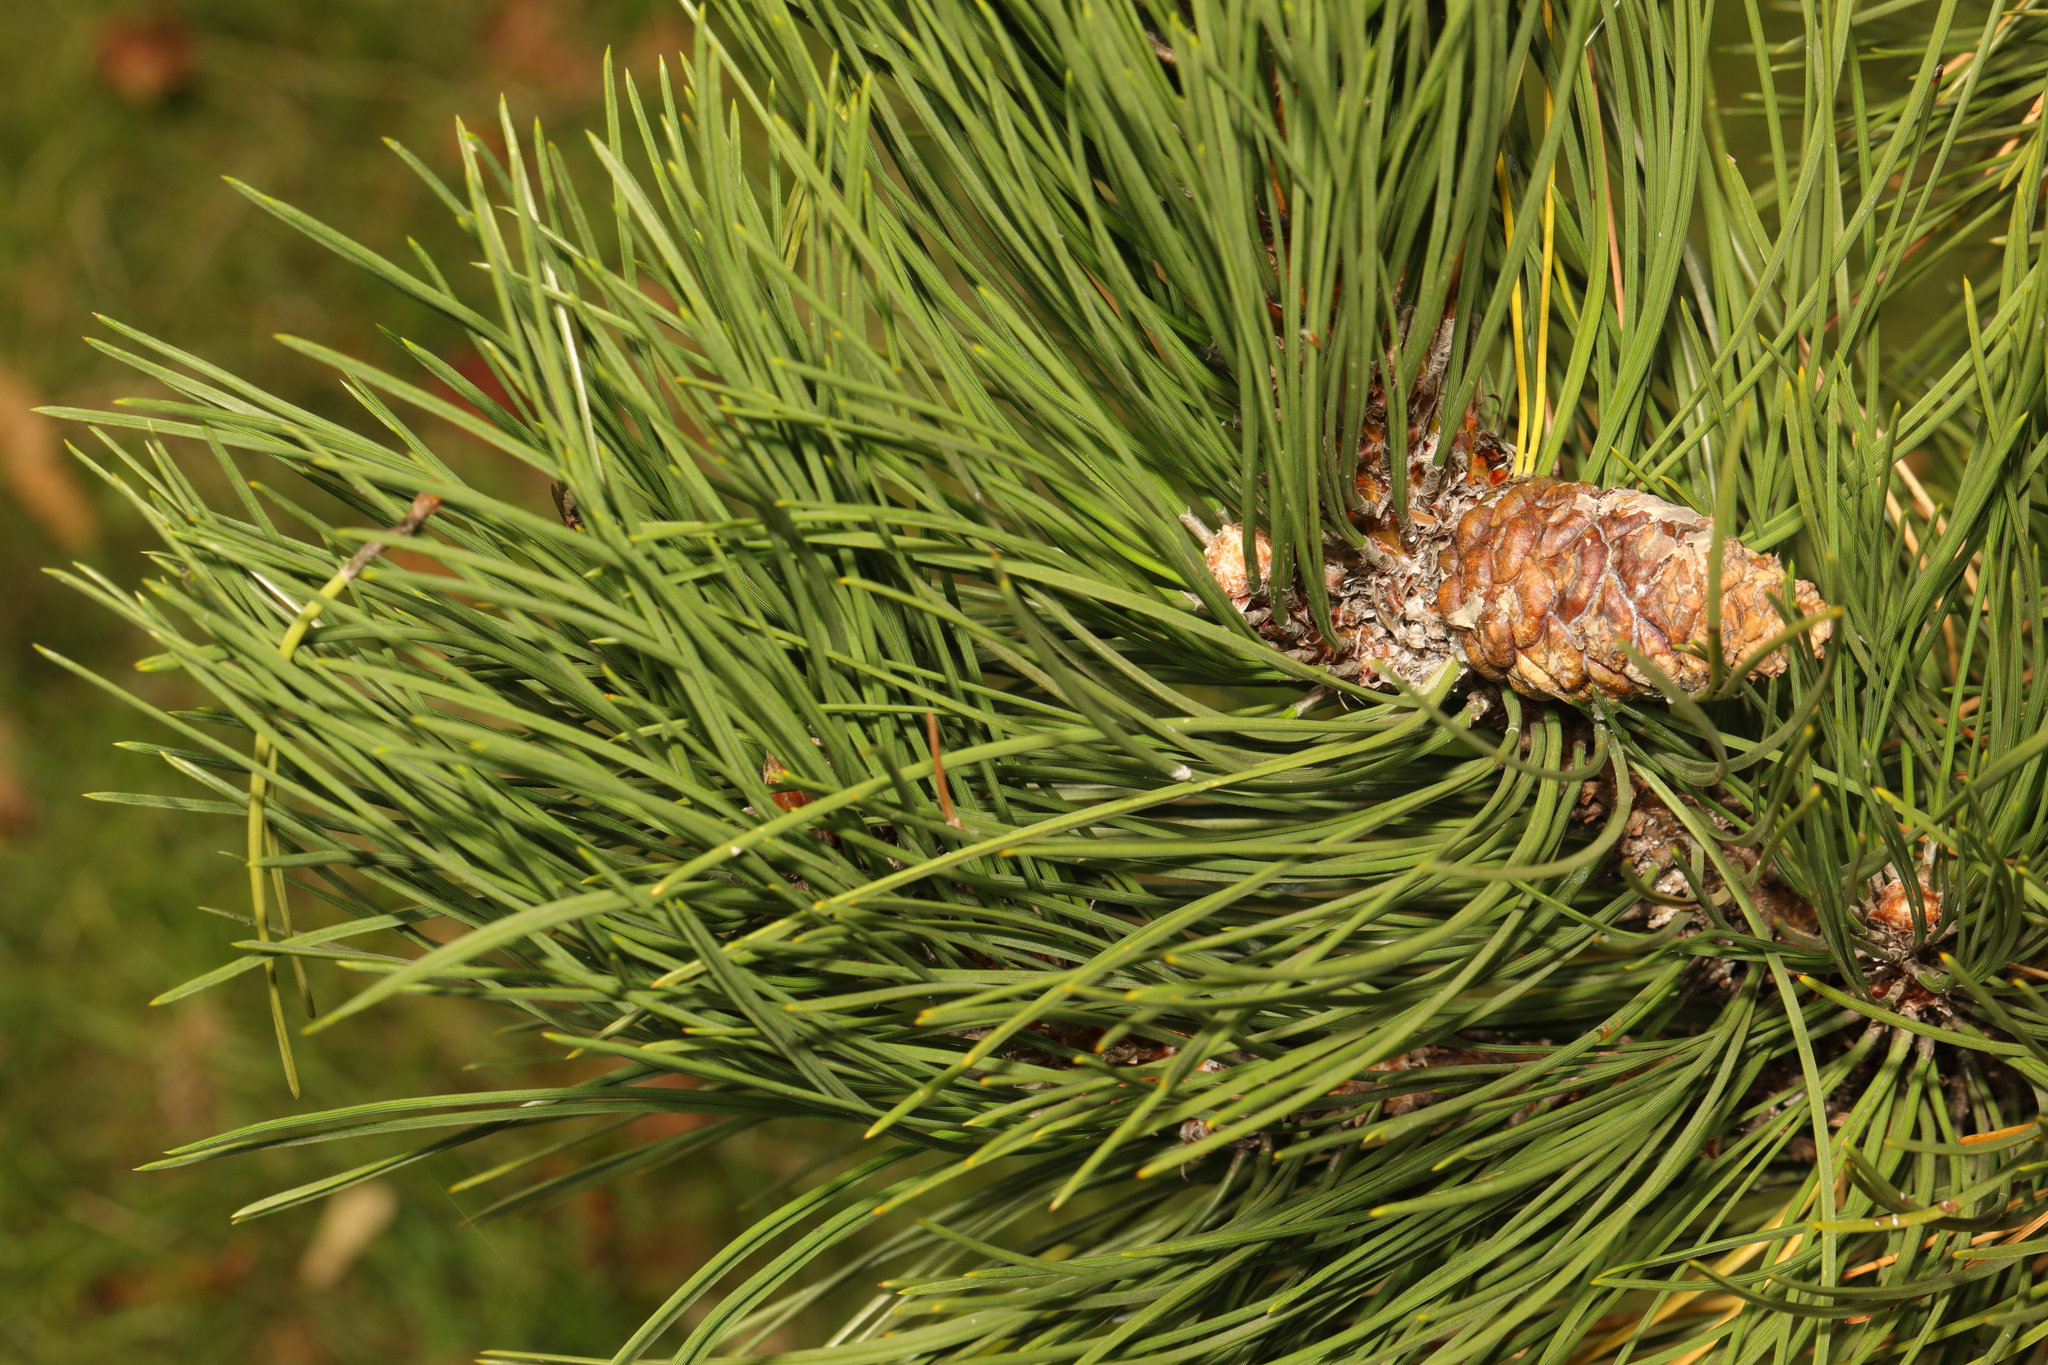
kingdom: Plantae
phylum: Tracheophyta
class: Pinopsida
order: Pinales
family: Pinaceae
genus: Pinus
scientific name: Pinus nigra
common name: Austrian pine
